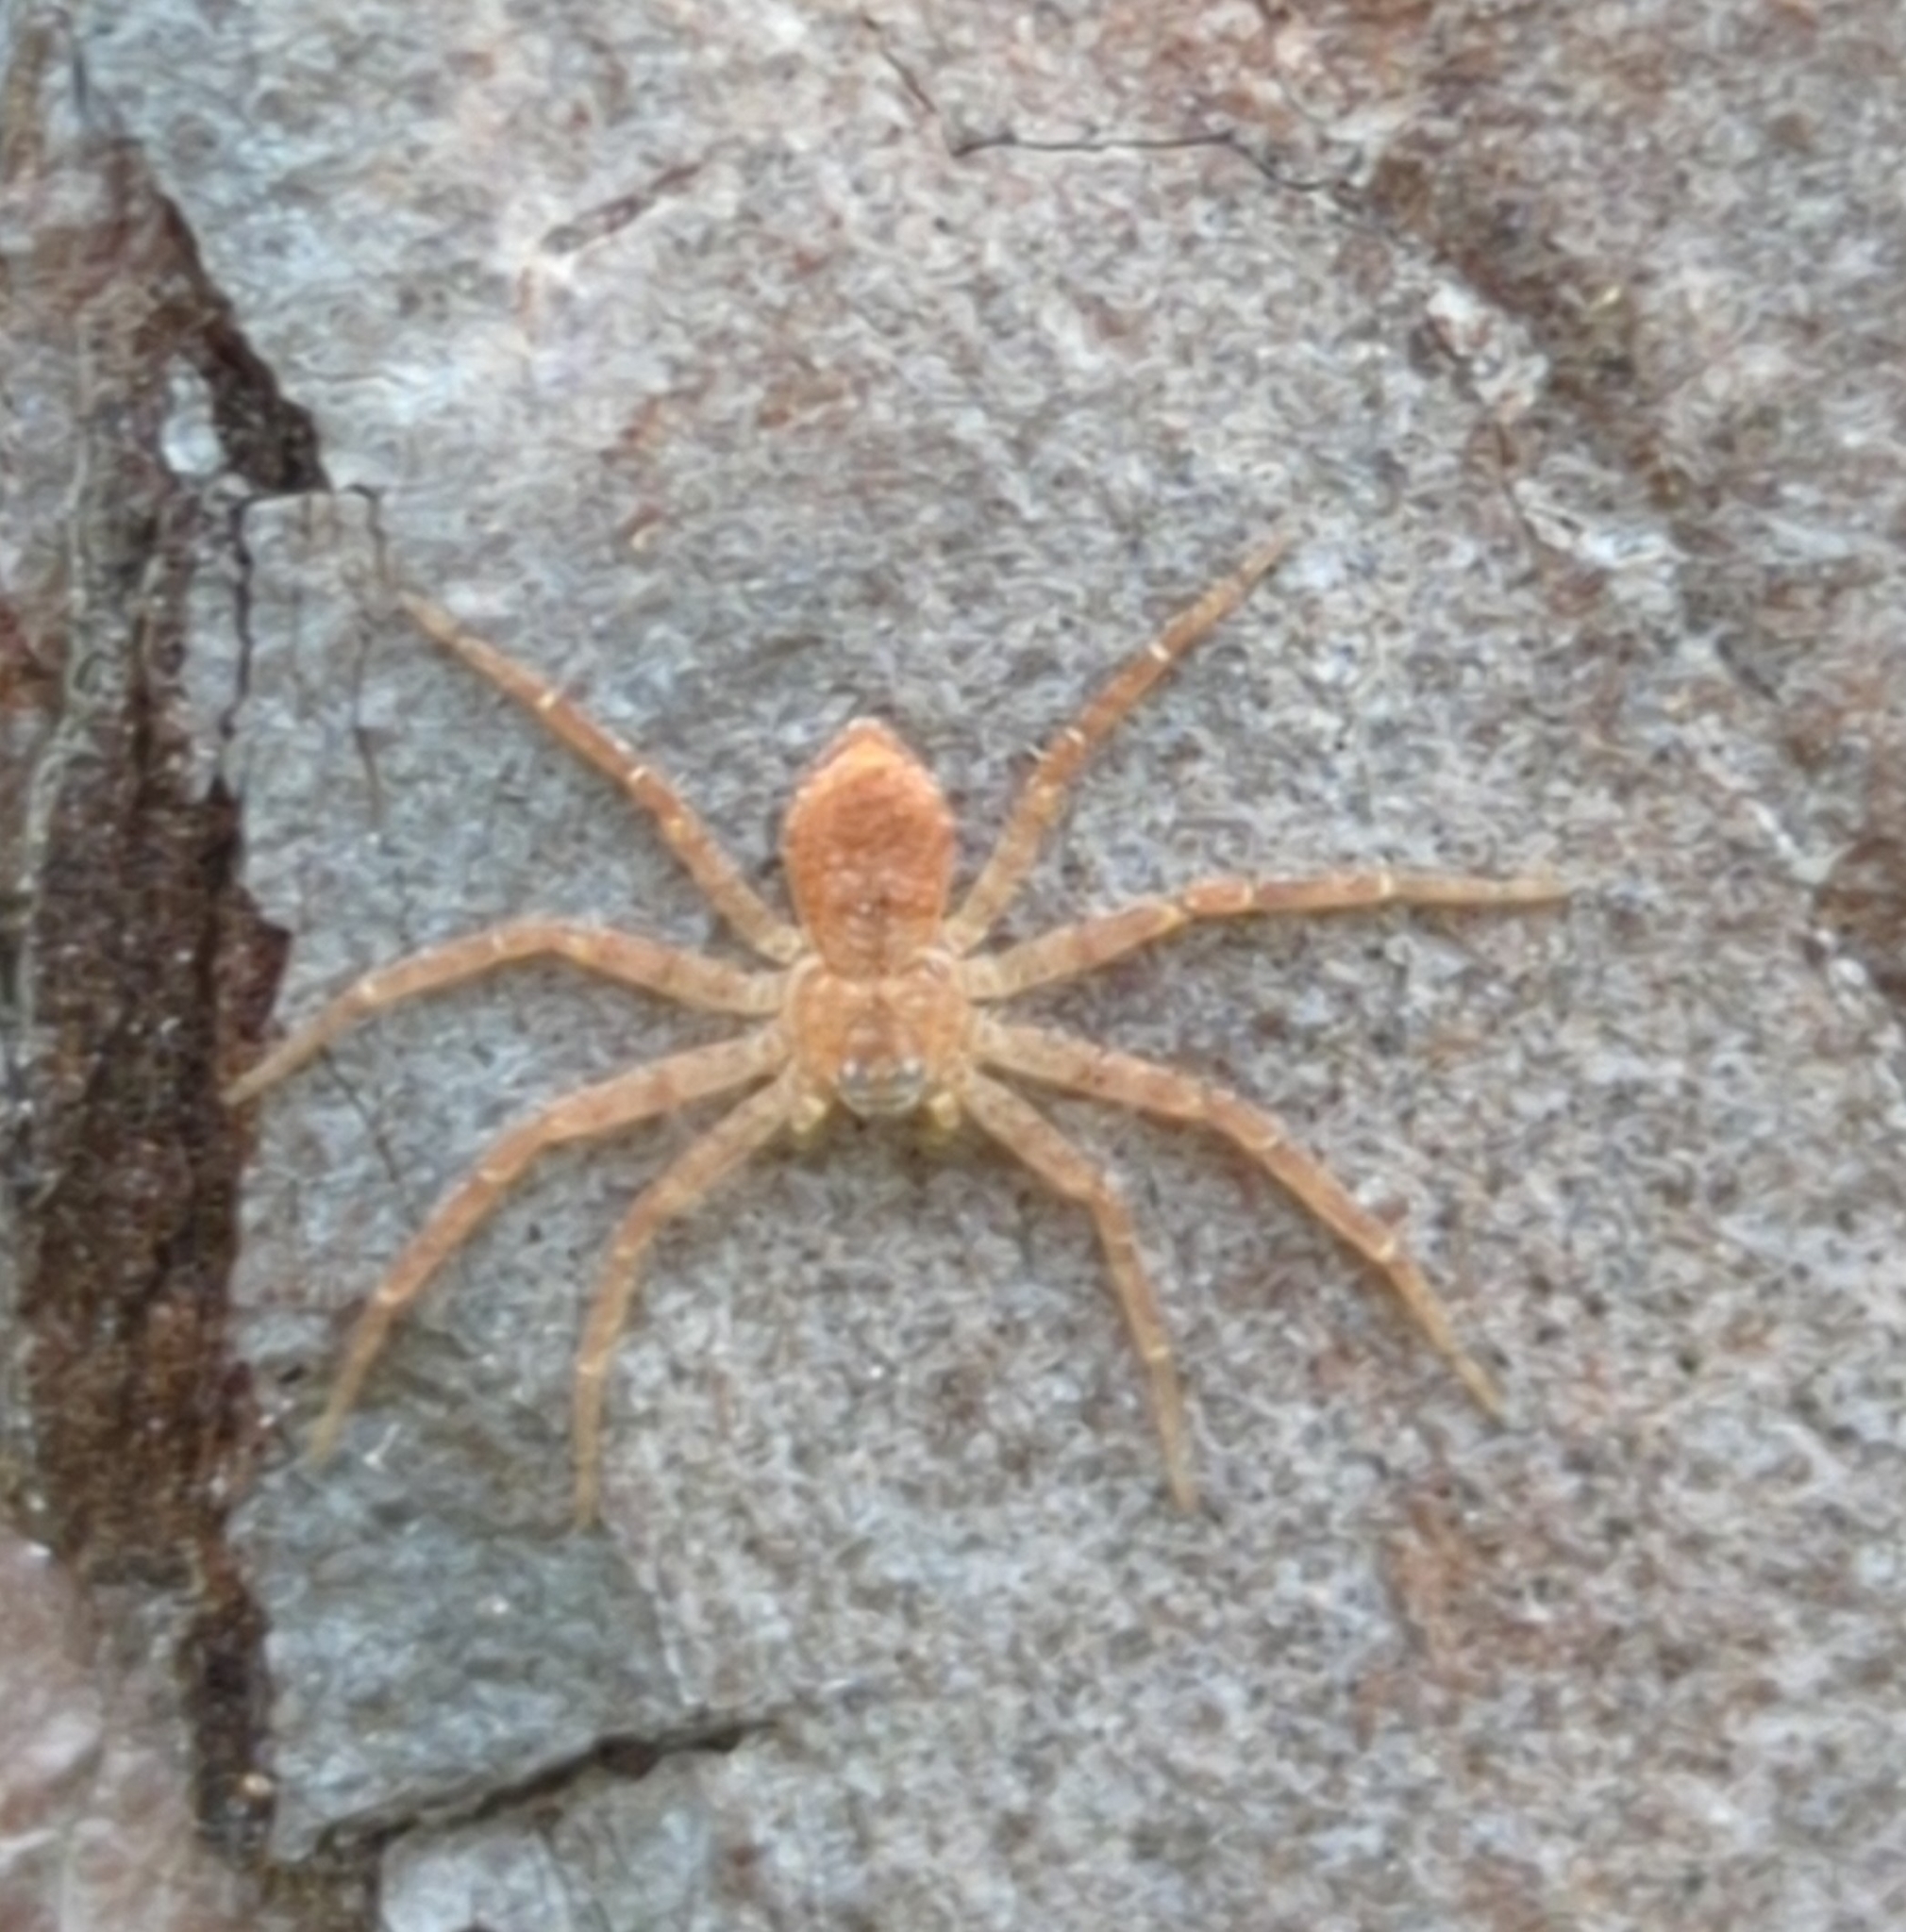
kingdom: Animalia
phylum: Arthropoda
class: Arachnida
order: Araneae
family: Philodromidae
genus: Philodromus
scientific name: Philodromus fuscomarginatus
